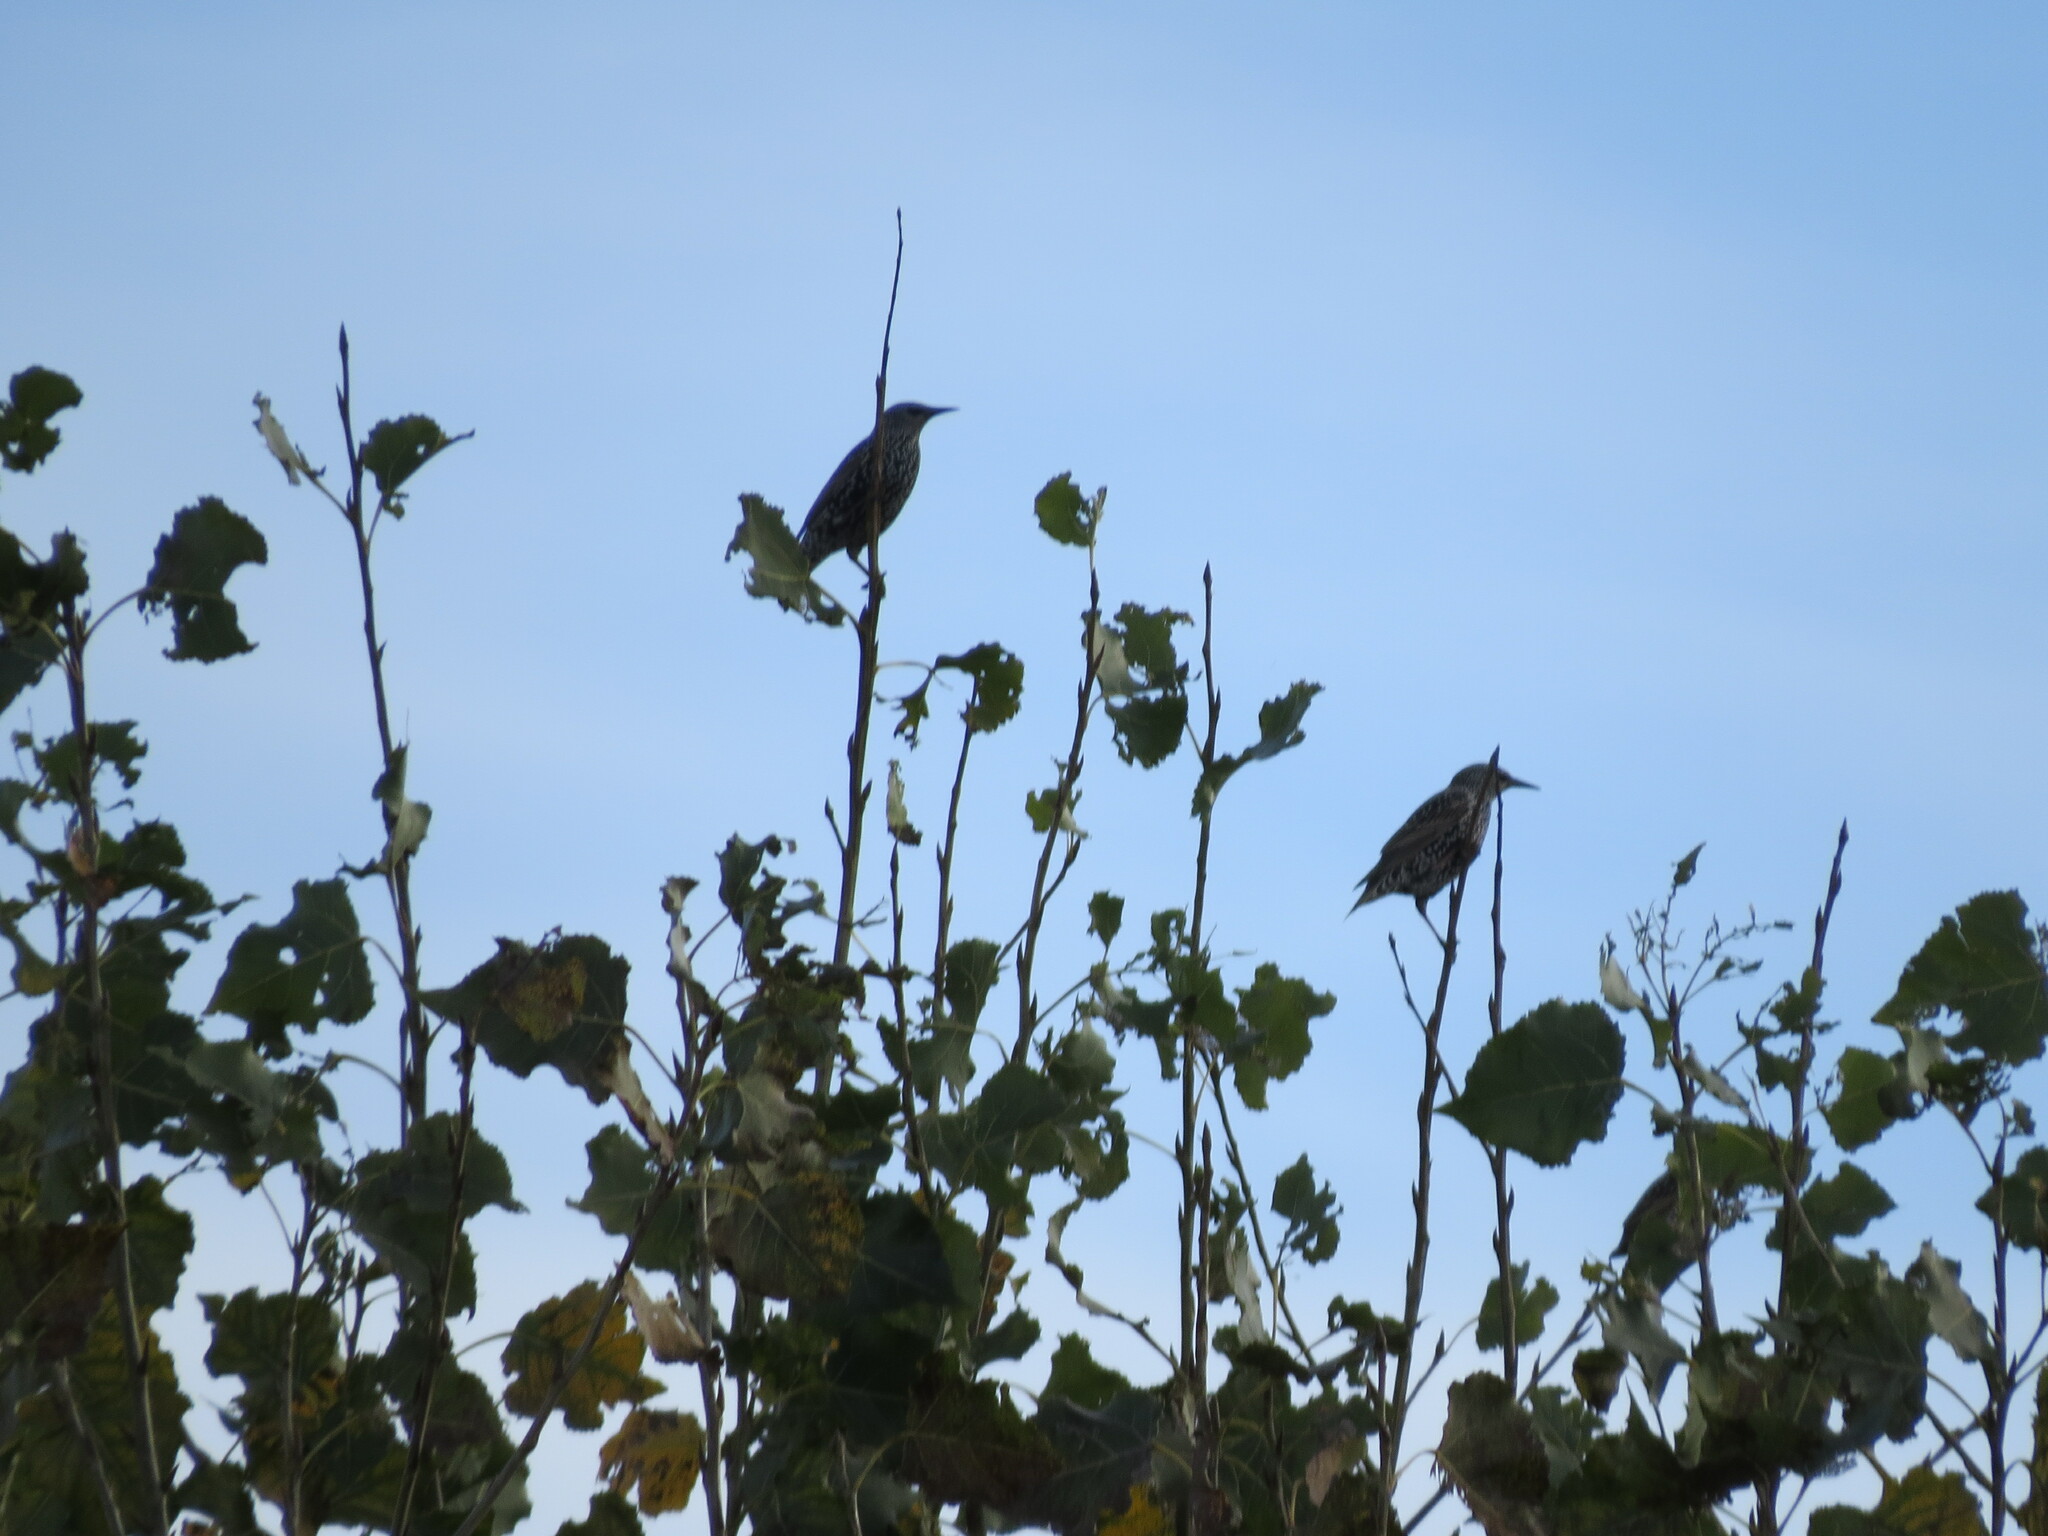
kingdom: Animalia
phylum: Chordata
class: Aves
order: Passeriformes
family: Sturnidae
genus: Sturnus
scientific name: Sturnus vulgaris
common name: Common starling
